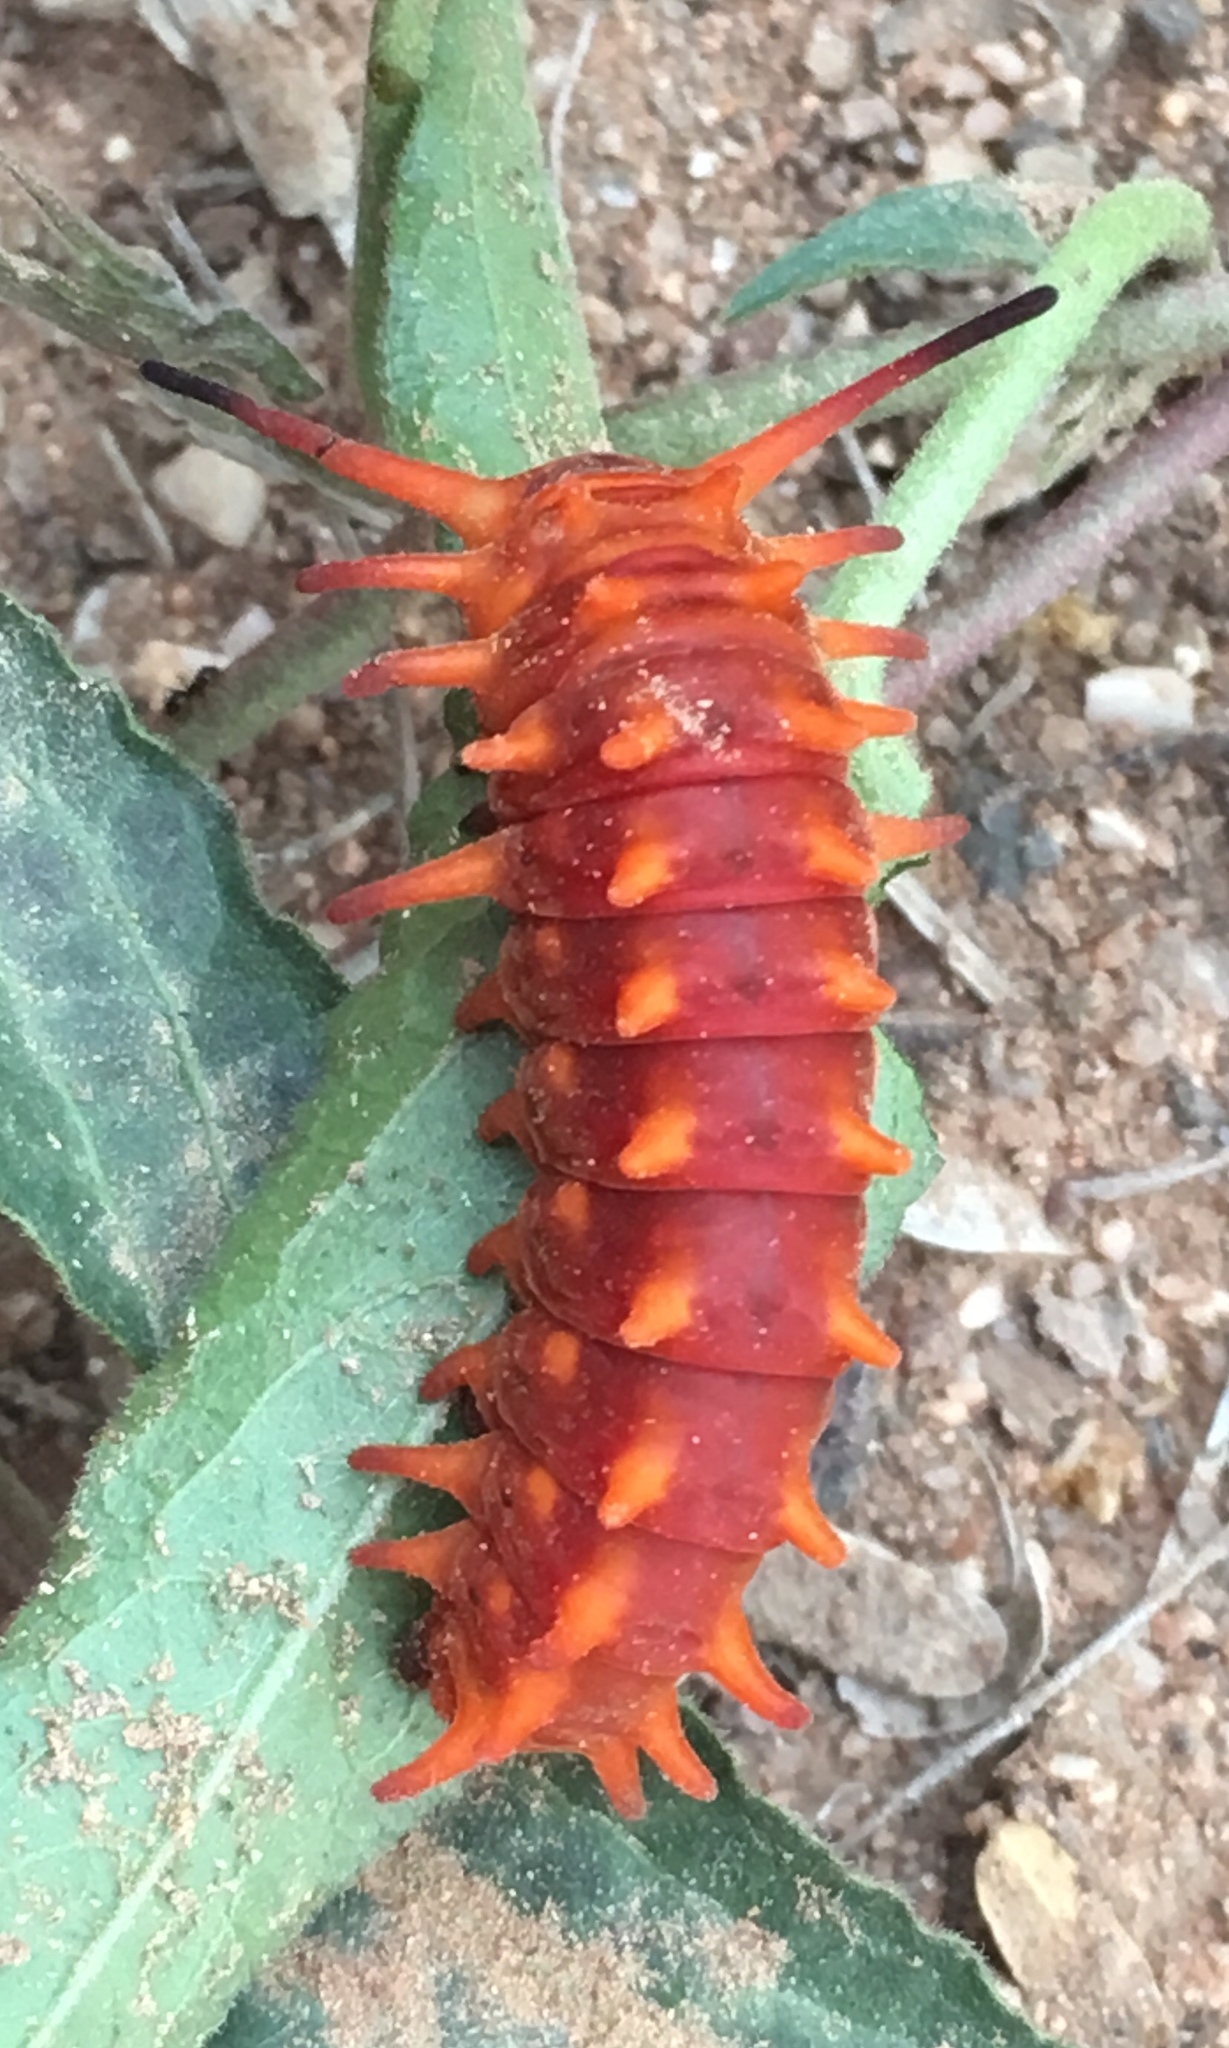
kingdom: Animalia
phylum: Arthropoda
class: Insecta
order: Lepidoptera
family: Papilionidae
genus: Battus
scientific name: Battus philenor
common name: Pipevine swallowtail
